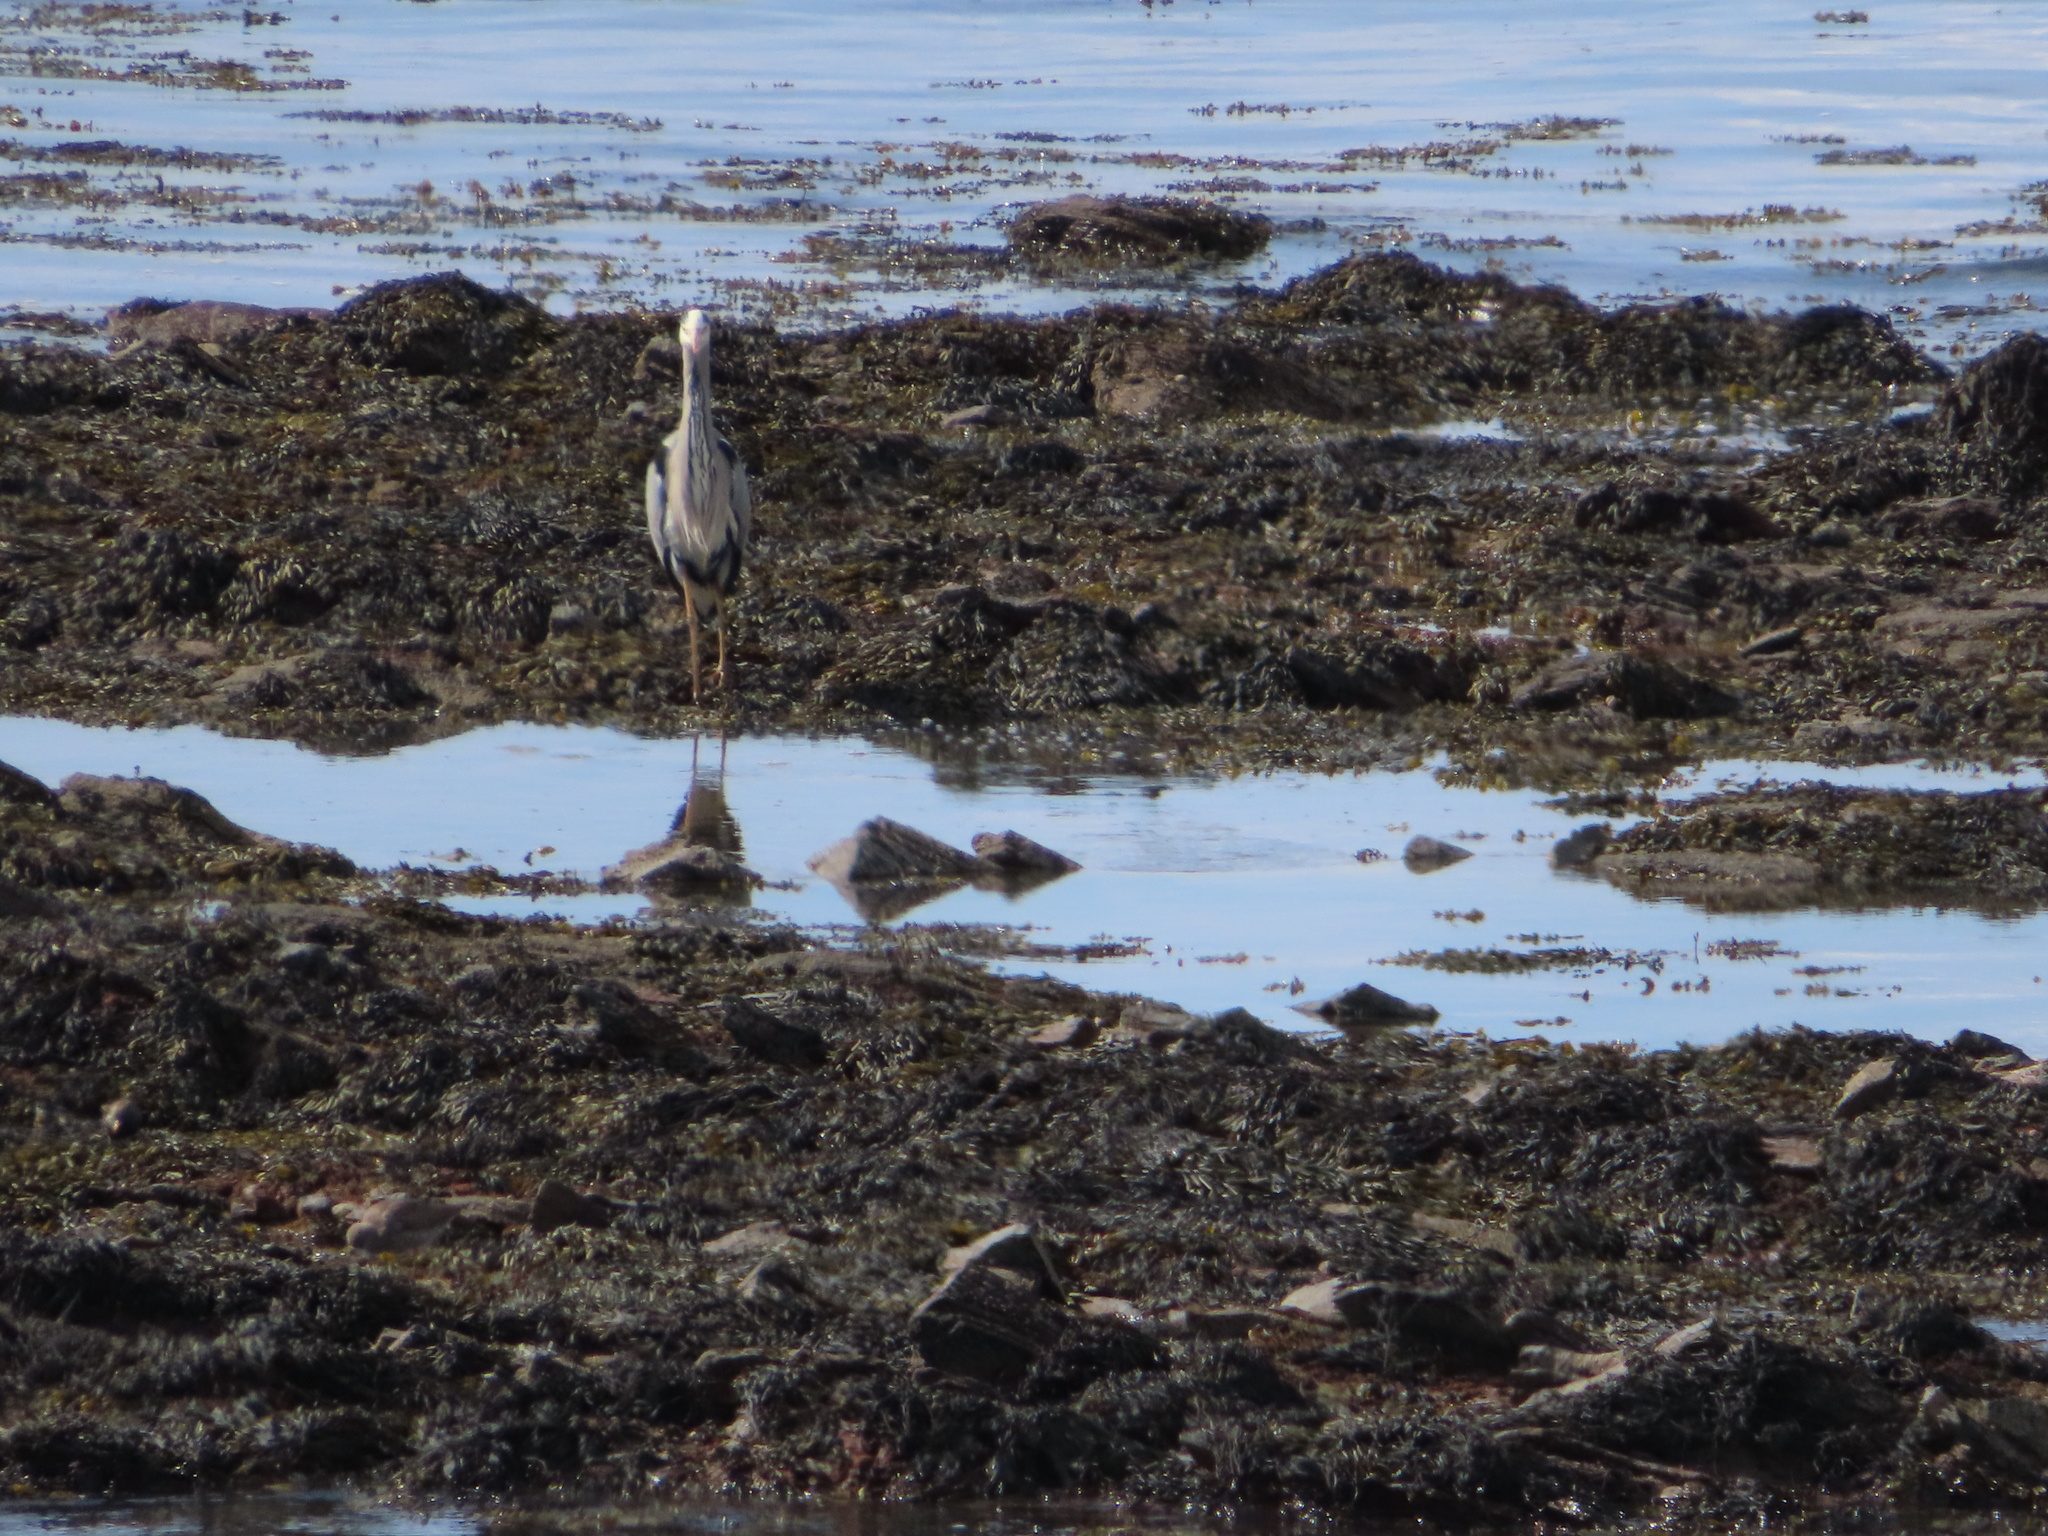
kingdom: Animalia
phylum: Chordata
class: Aves
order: Pelecaniformes
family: Ardeidae
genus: Ardea
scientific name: Ardea cinerea
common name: Grey heron
